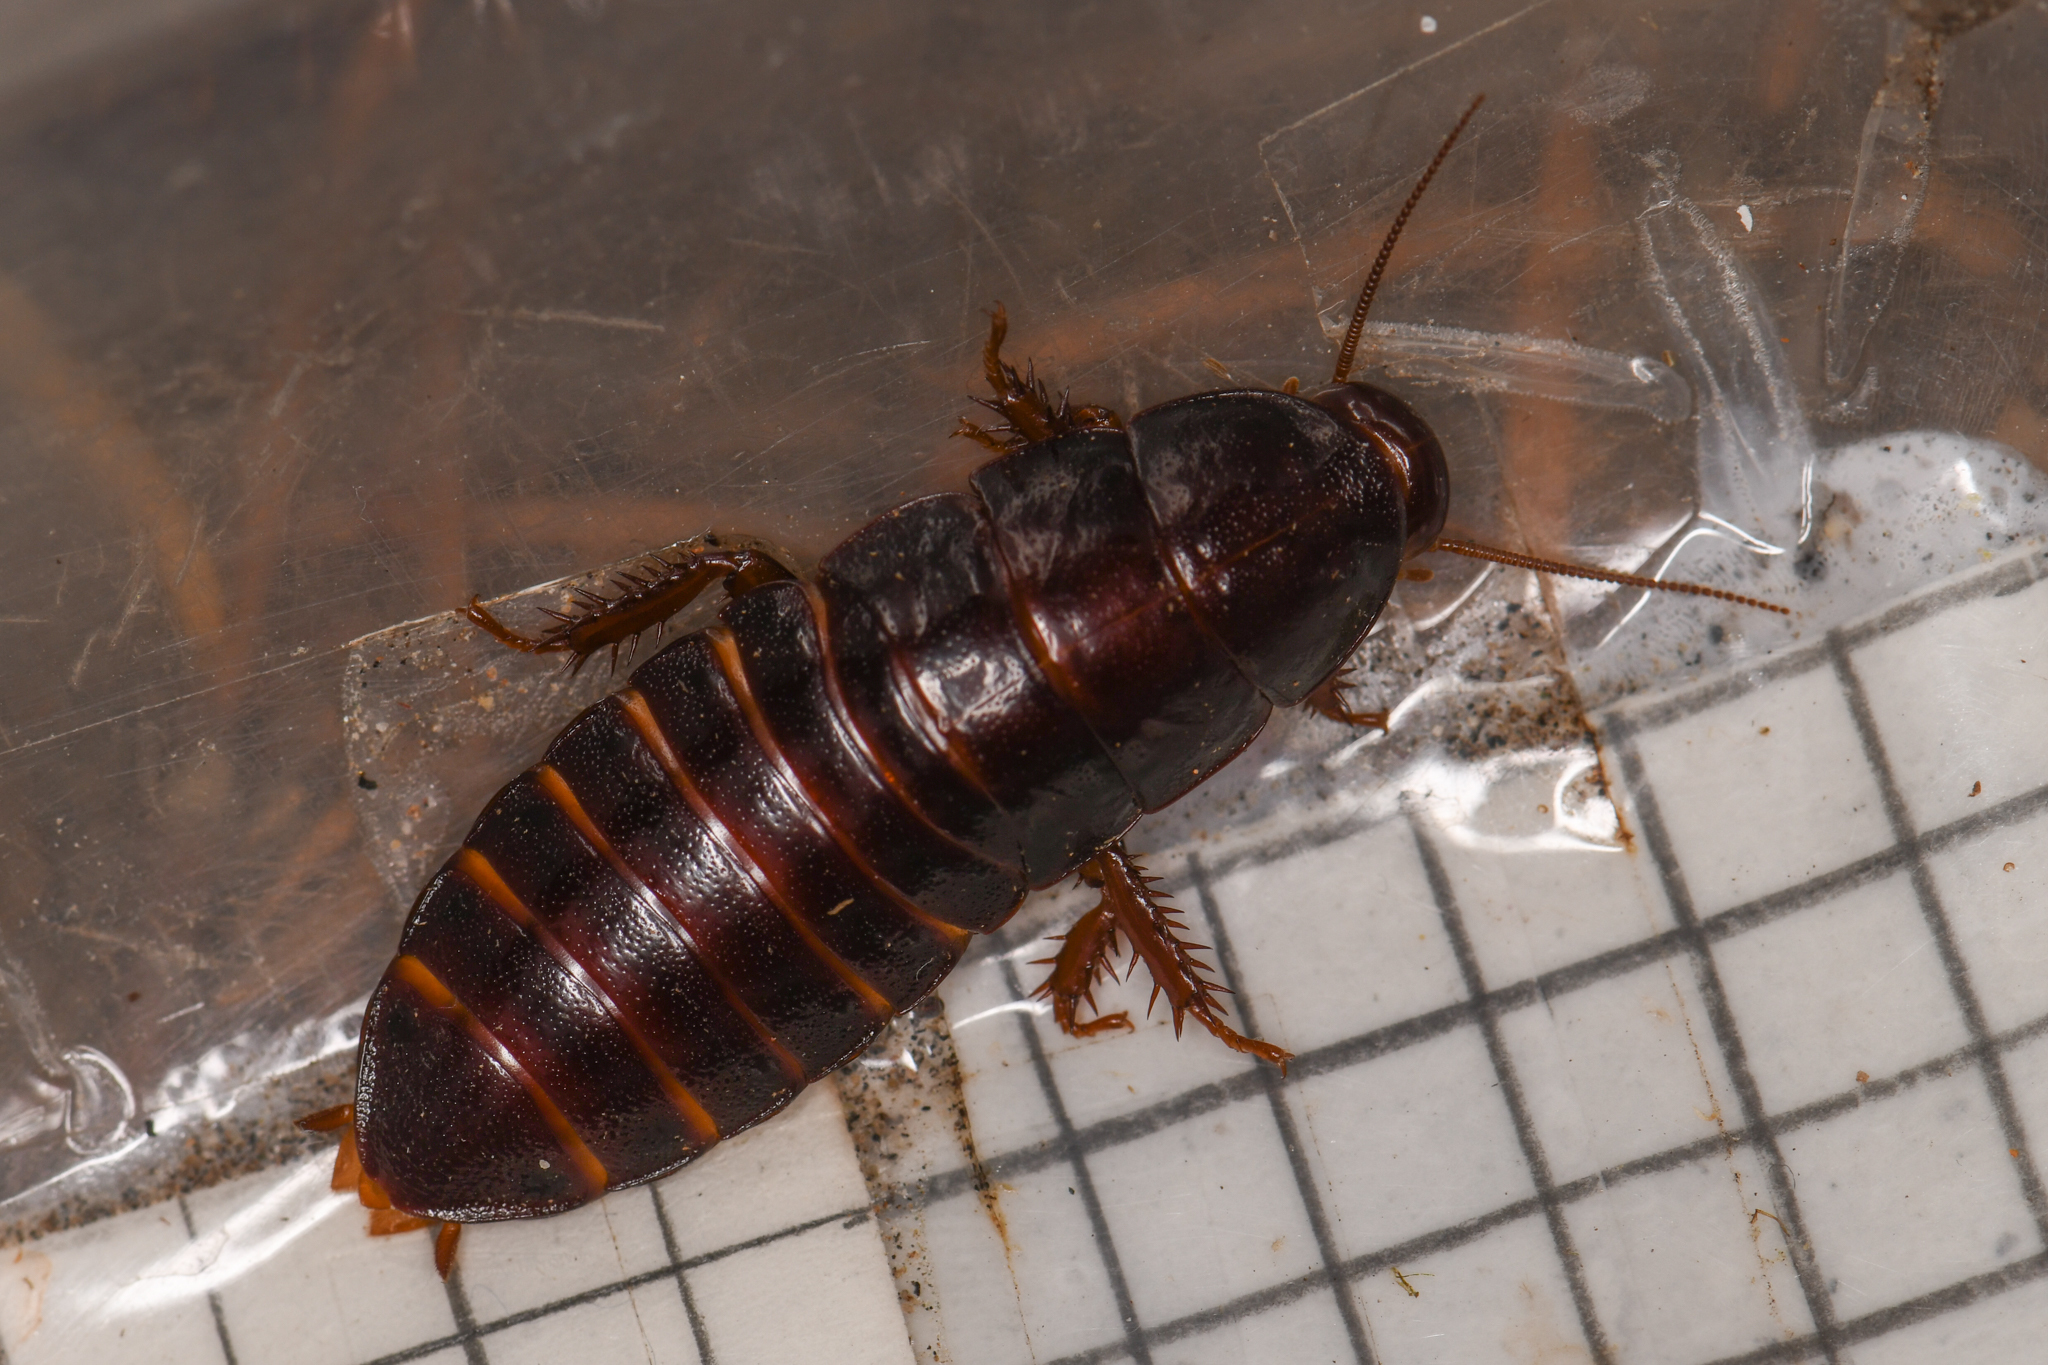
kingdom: Animalia
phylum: Arthropoda
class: Insecta
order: Blattodea
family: Cryptocercidae
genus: Cryptocercus
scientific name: Cryptocercus clevelandi
